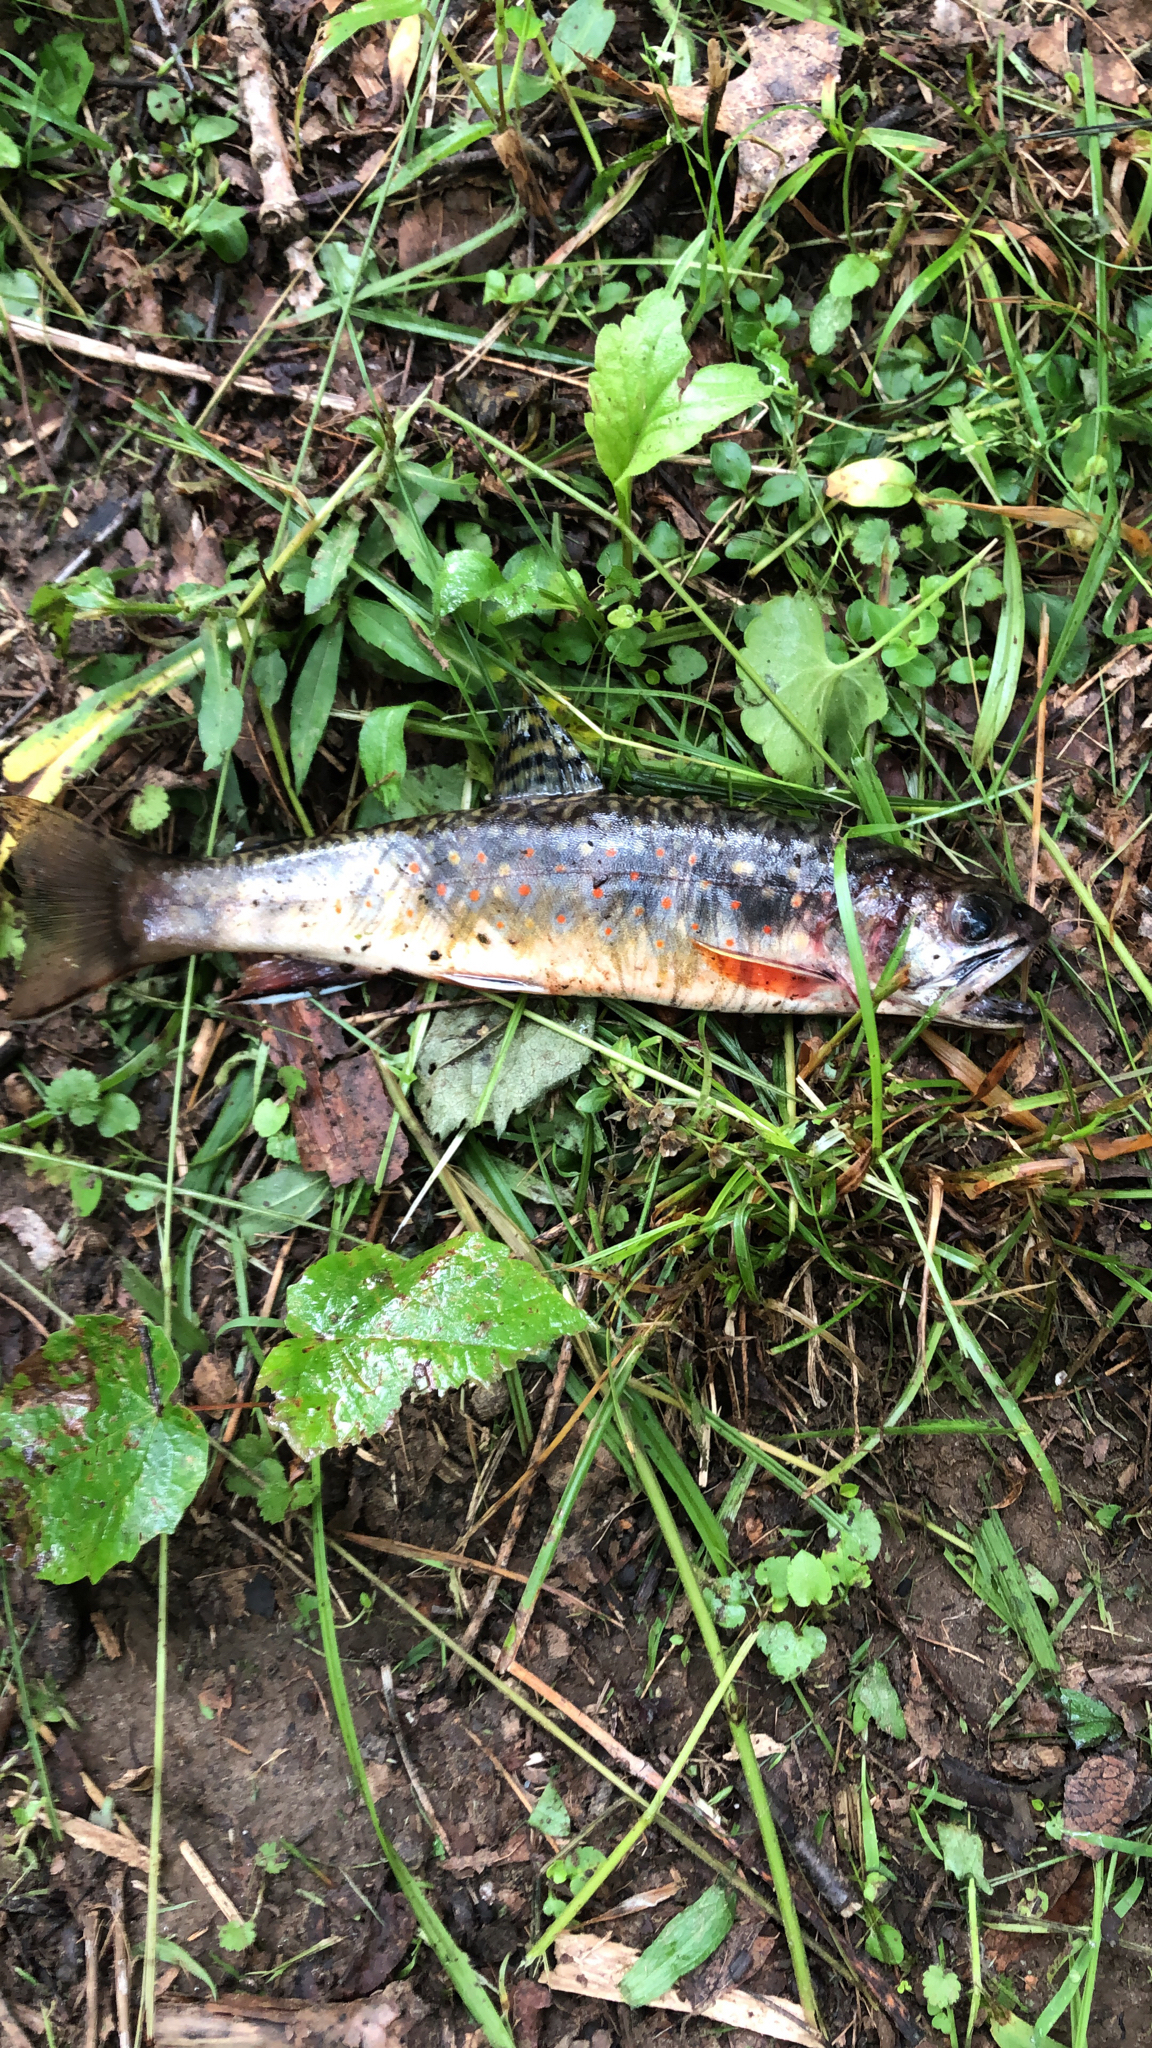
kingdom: Animalia
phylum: Chordata
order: Salmoniformes
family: Salmonidae
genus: Salvelinus
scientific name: Salvelinus fontinalis
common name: Brook trout
